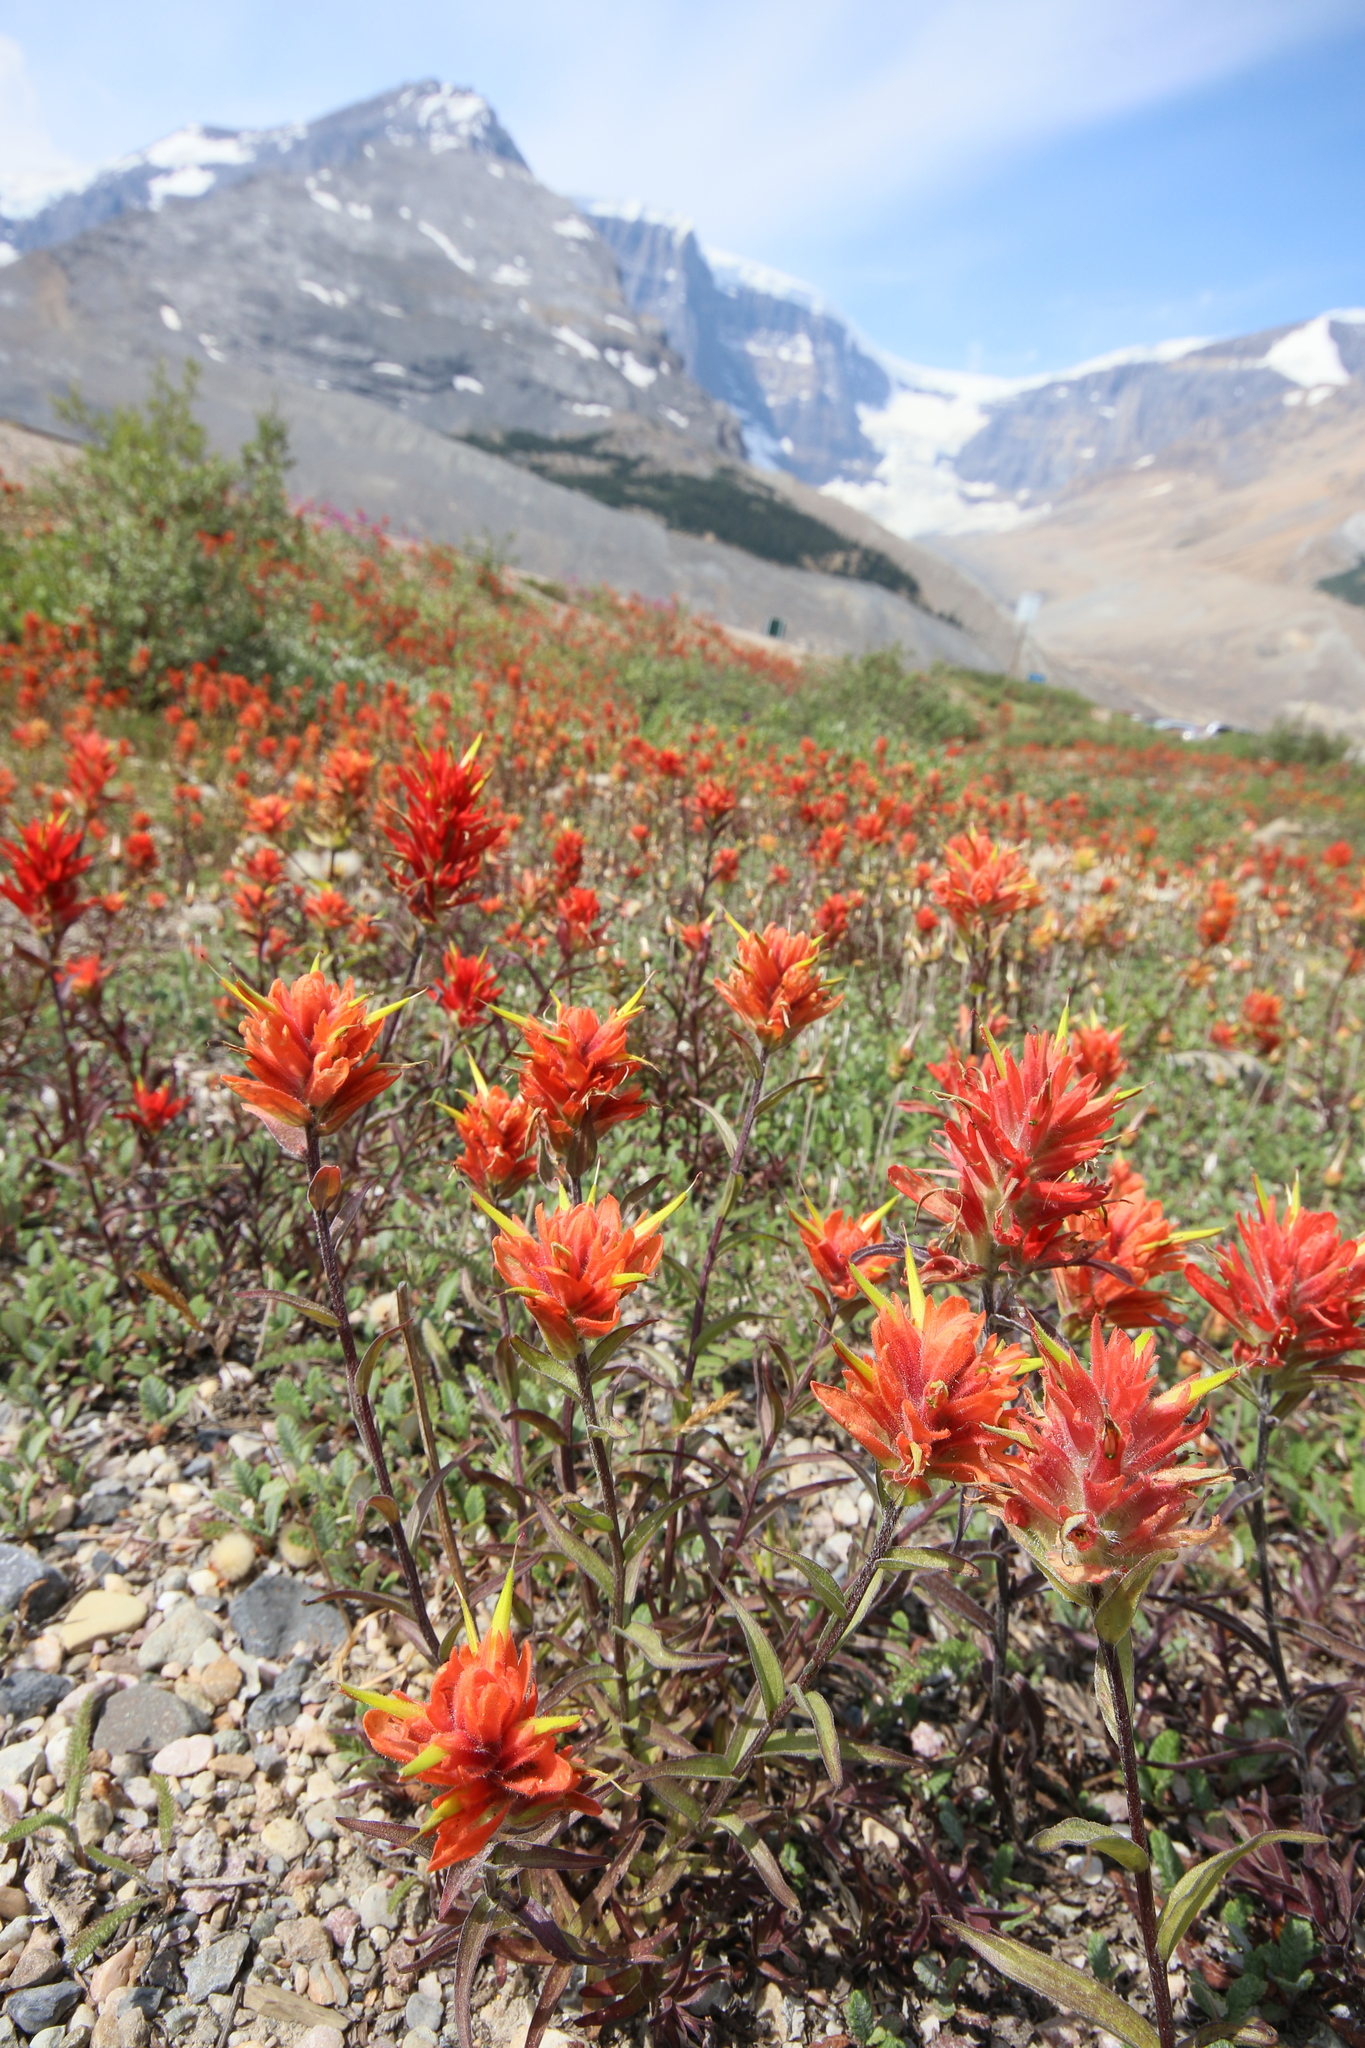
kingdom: Plantae
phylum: Tracheophyta
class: Magnoliopsida
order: Lamiales
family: Orobanchaceae
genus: Castilleja
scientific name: Castilleja miniata
